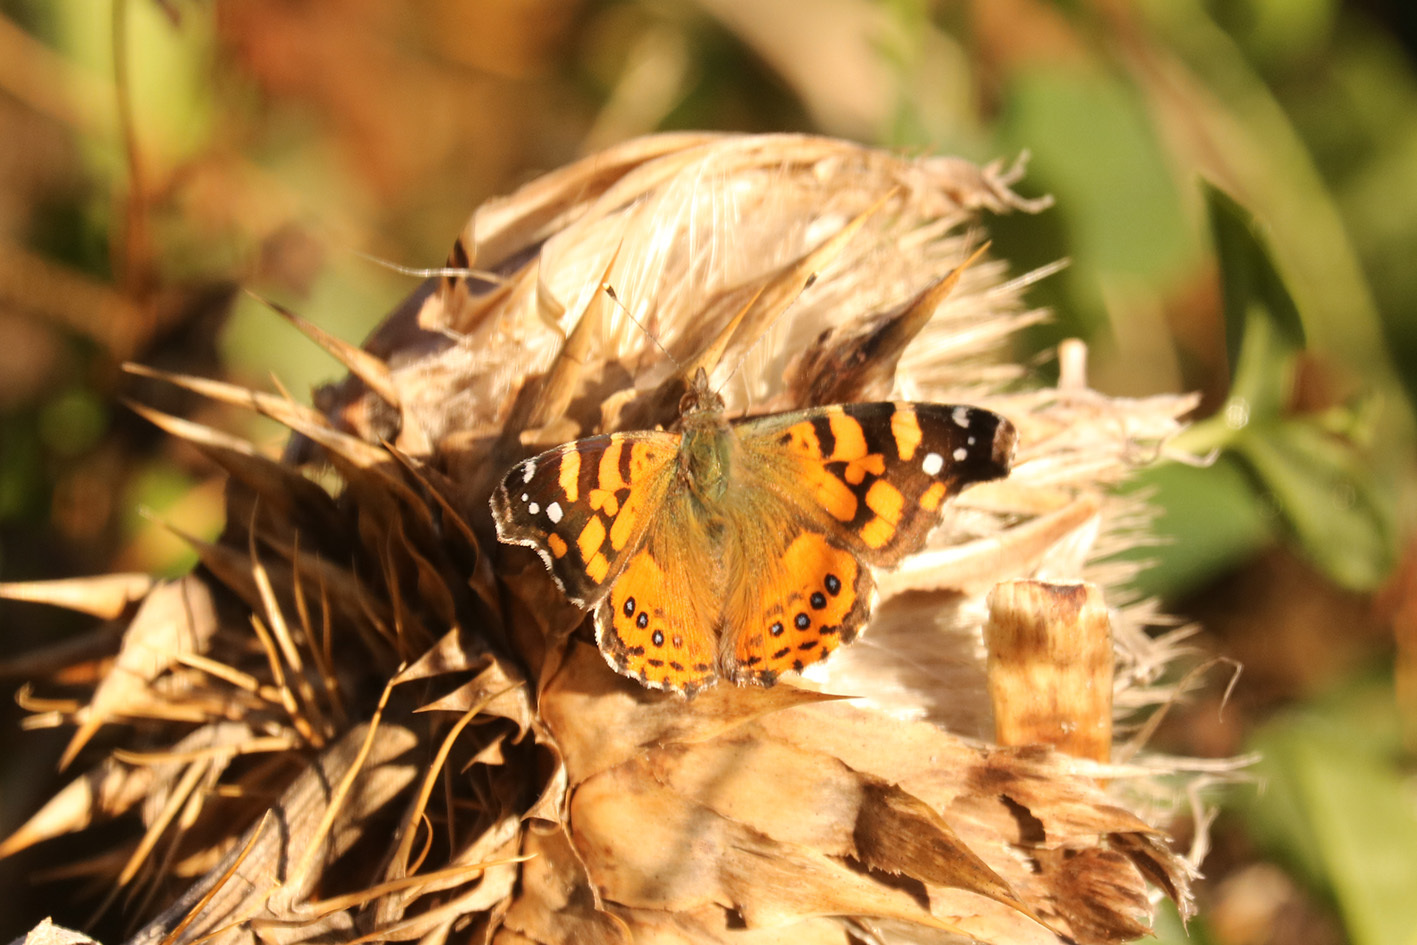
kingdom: Animalia
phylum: Arthropoda
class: Insecta
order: Lepidoptera
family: Nymphalidae
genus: Vanessa
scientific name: Vanessa carye
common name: Subtropical lady
